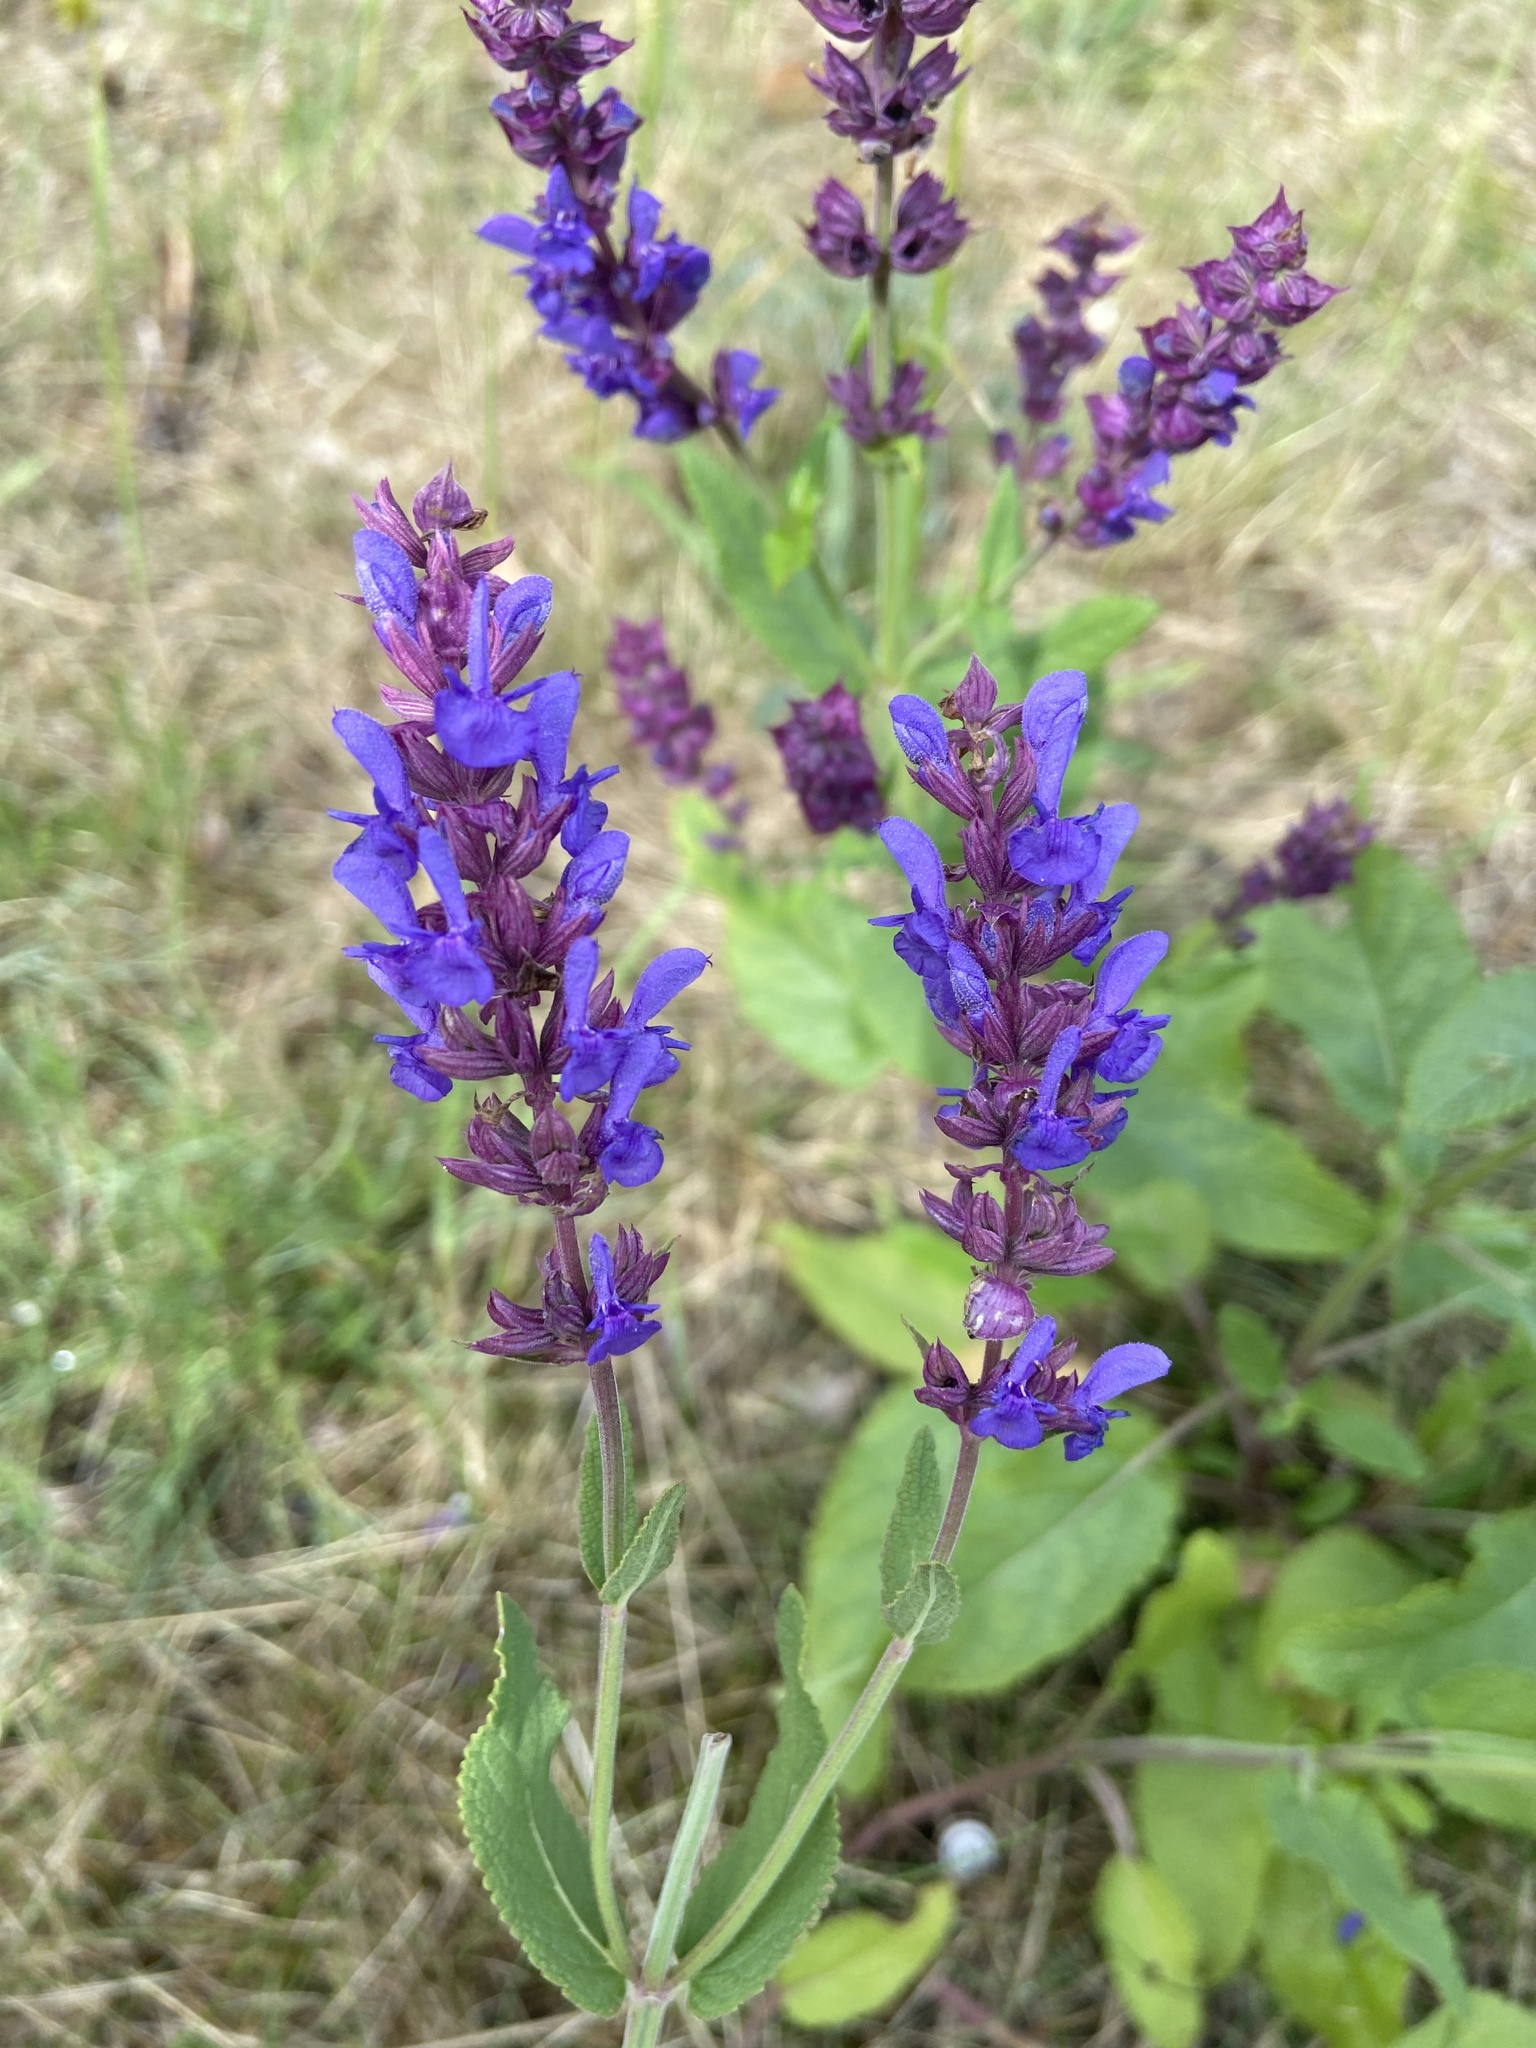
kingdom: Plantae
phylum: Tracheophyta
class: Magnoliopsida
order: Lamiales
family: Lamiaceae
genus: Salvia
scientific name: Salvia nemorosa
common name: Balkan clary
